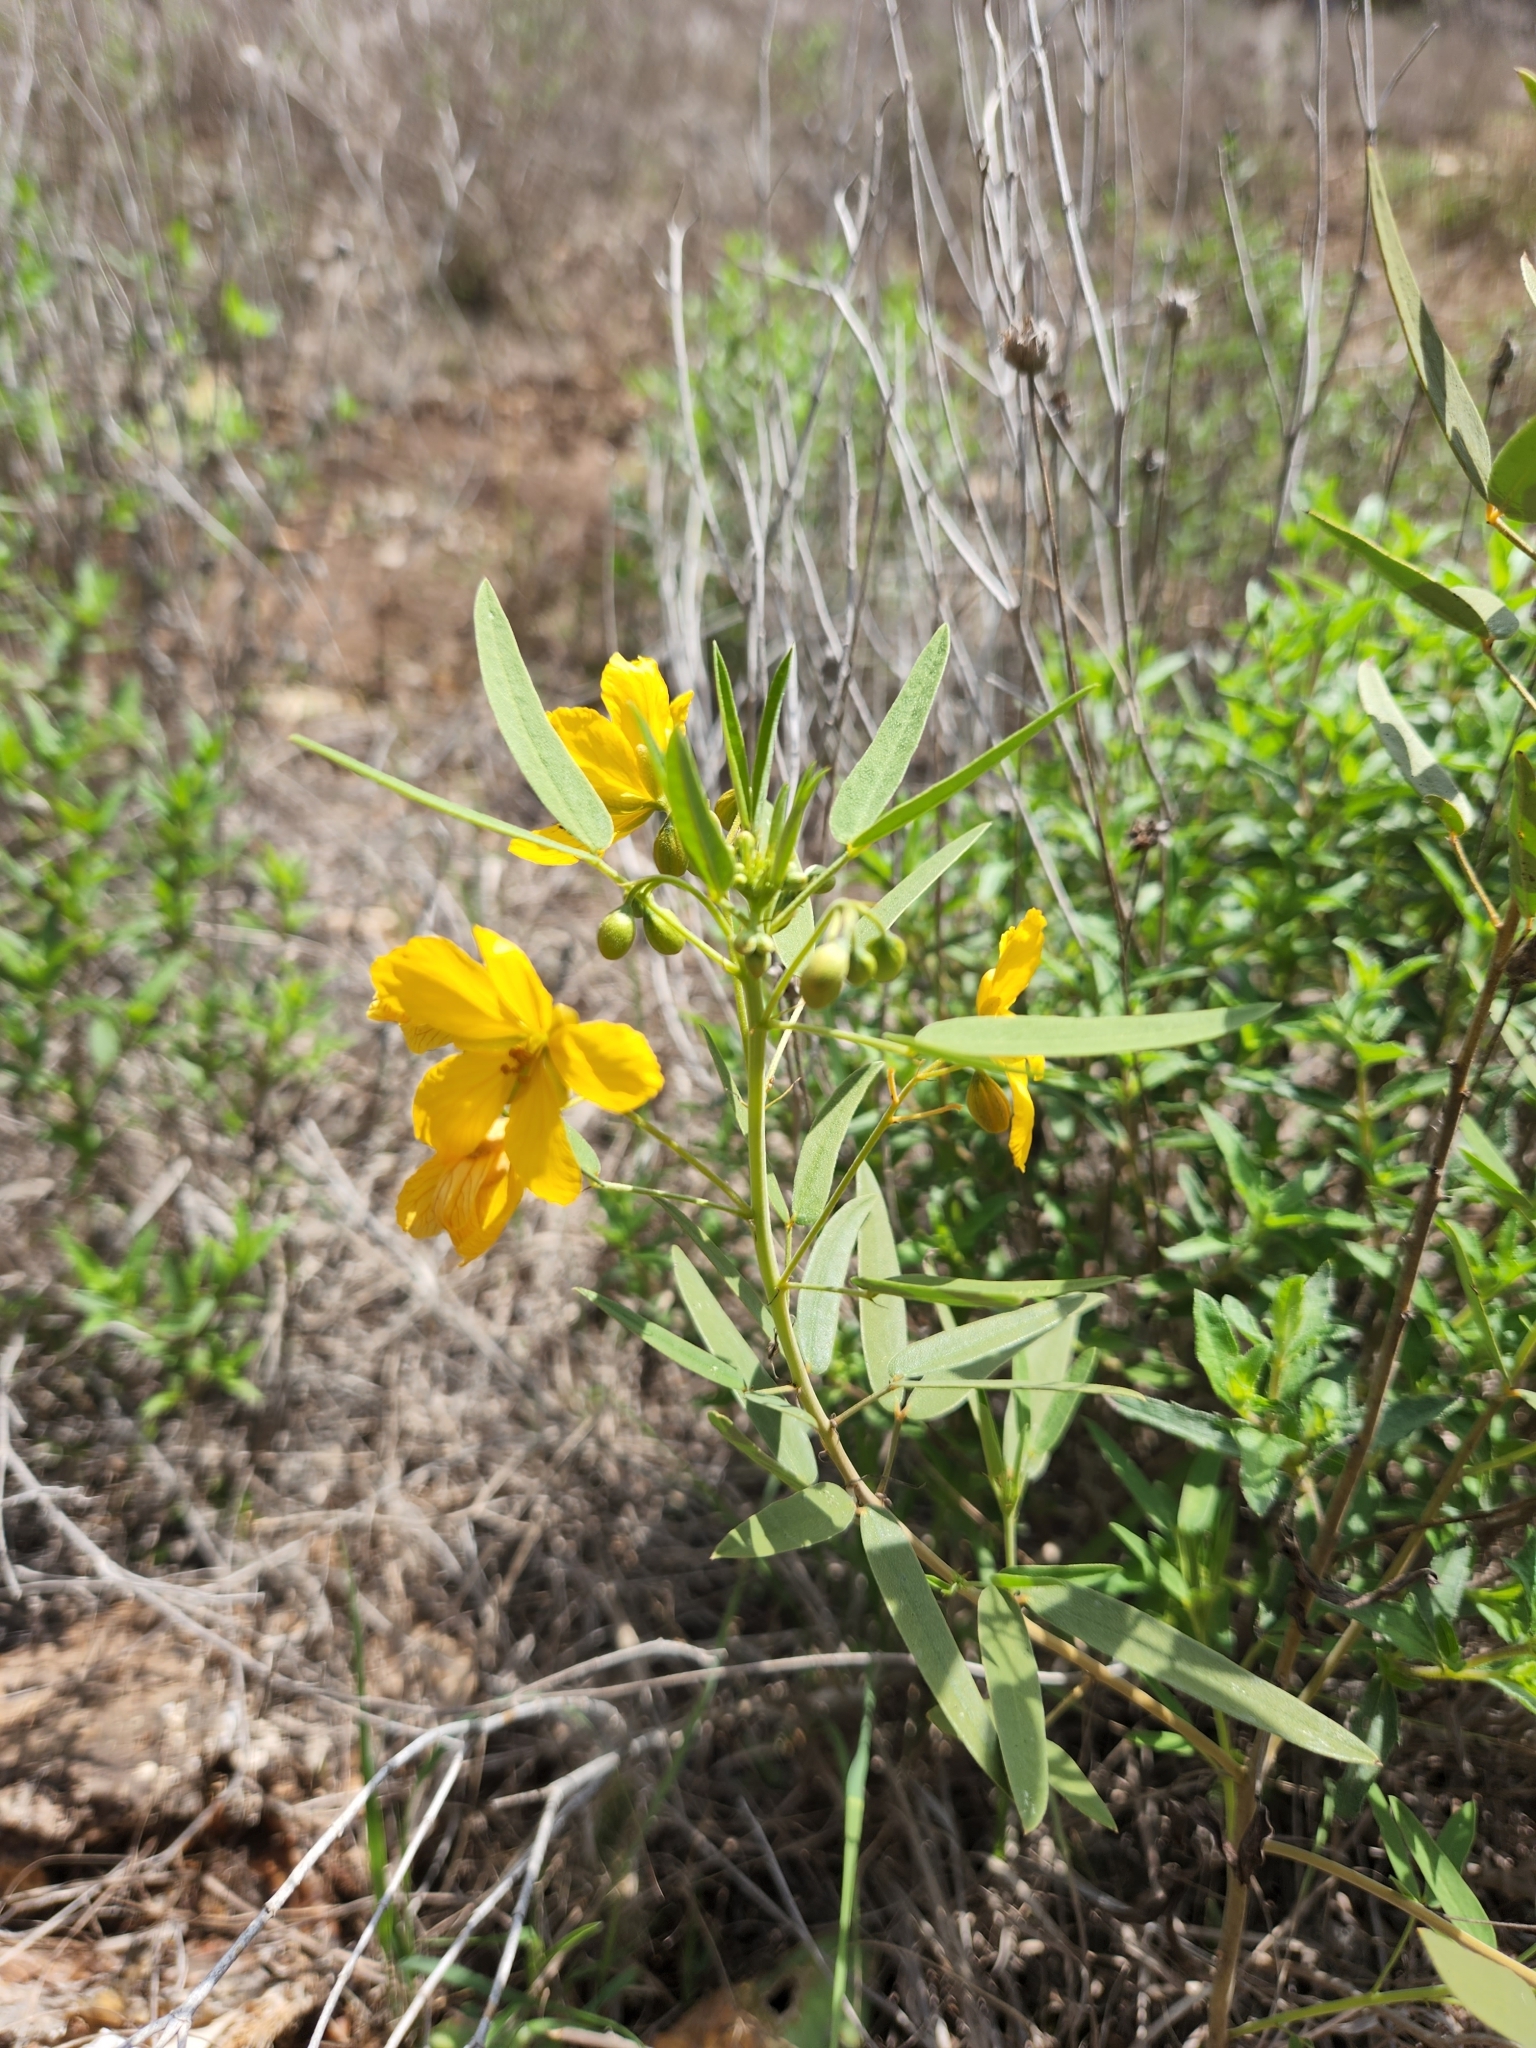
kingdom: Plantae
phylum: Tracheophyta
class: Magnoliopsida
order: Fabales
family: Fabaceae
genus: Senna
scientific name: Senna roemeriana
